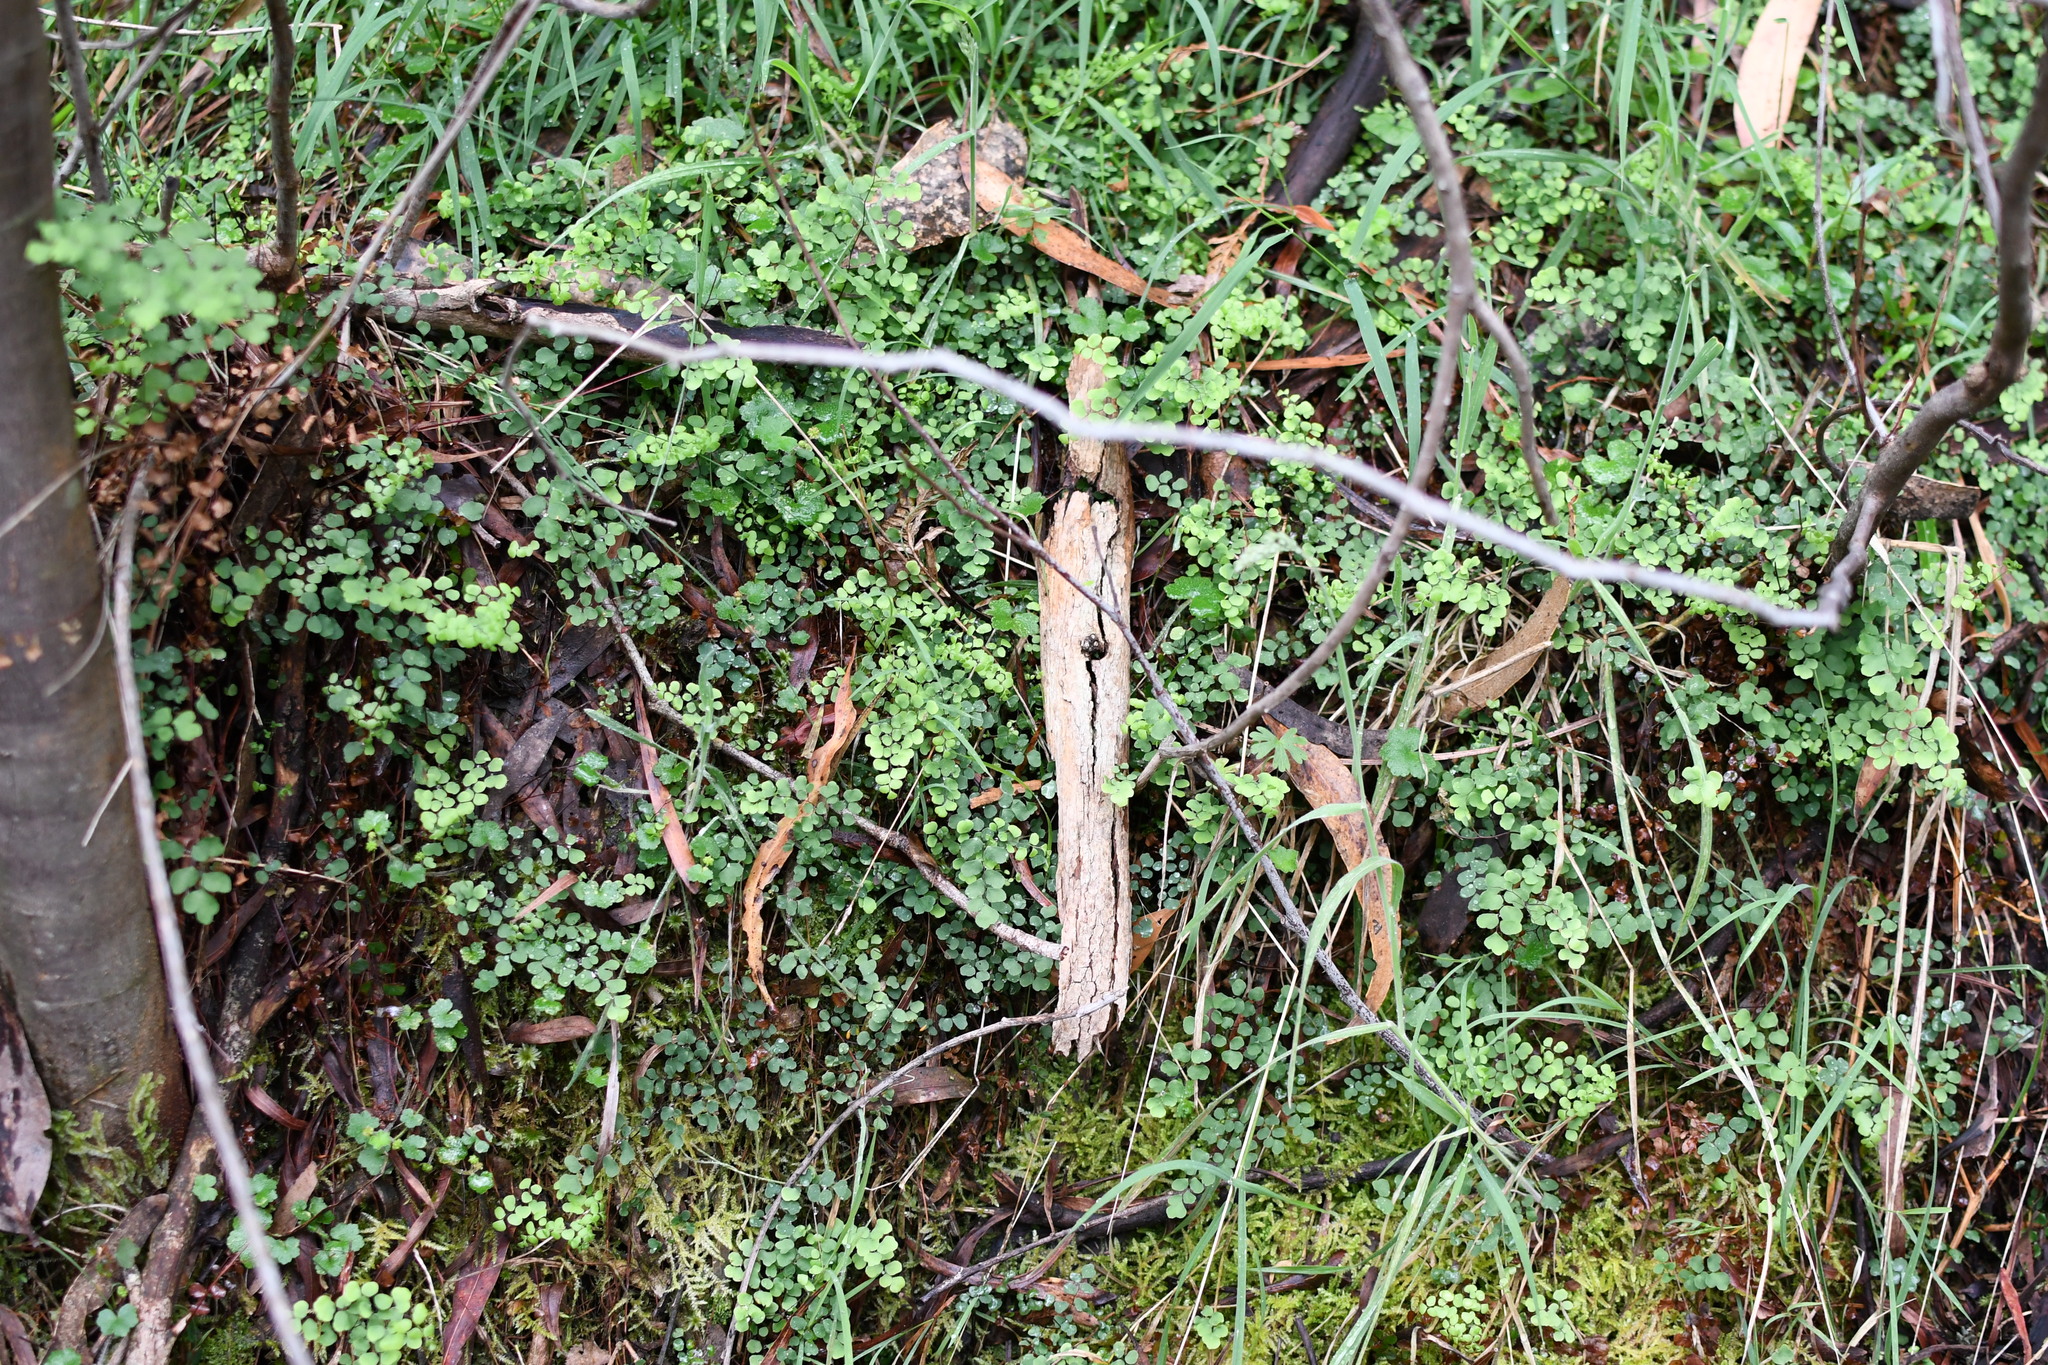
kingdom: Plantae
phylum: Tracheophyta
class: Polypodiopsida
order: Polypodiales
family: Pteridaceae
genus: Adiantum
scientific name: Adiantum aethiopicum
